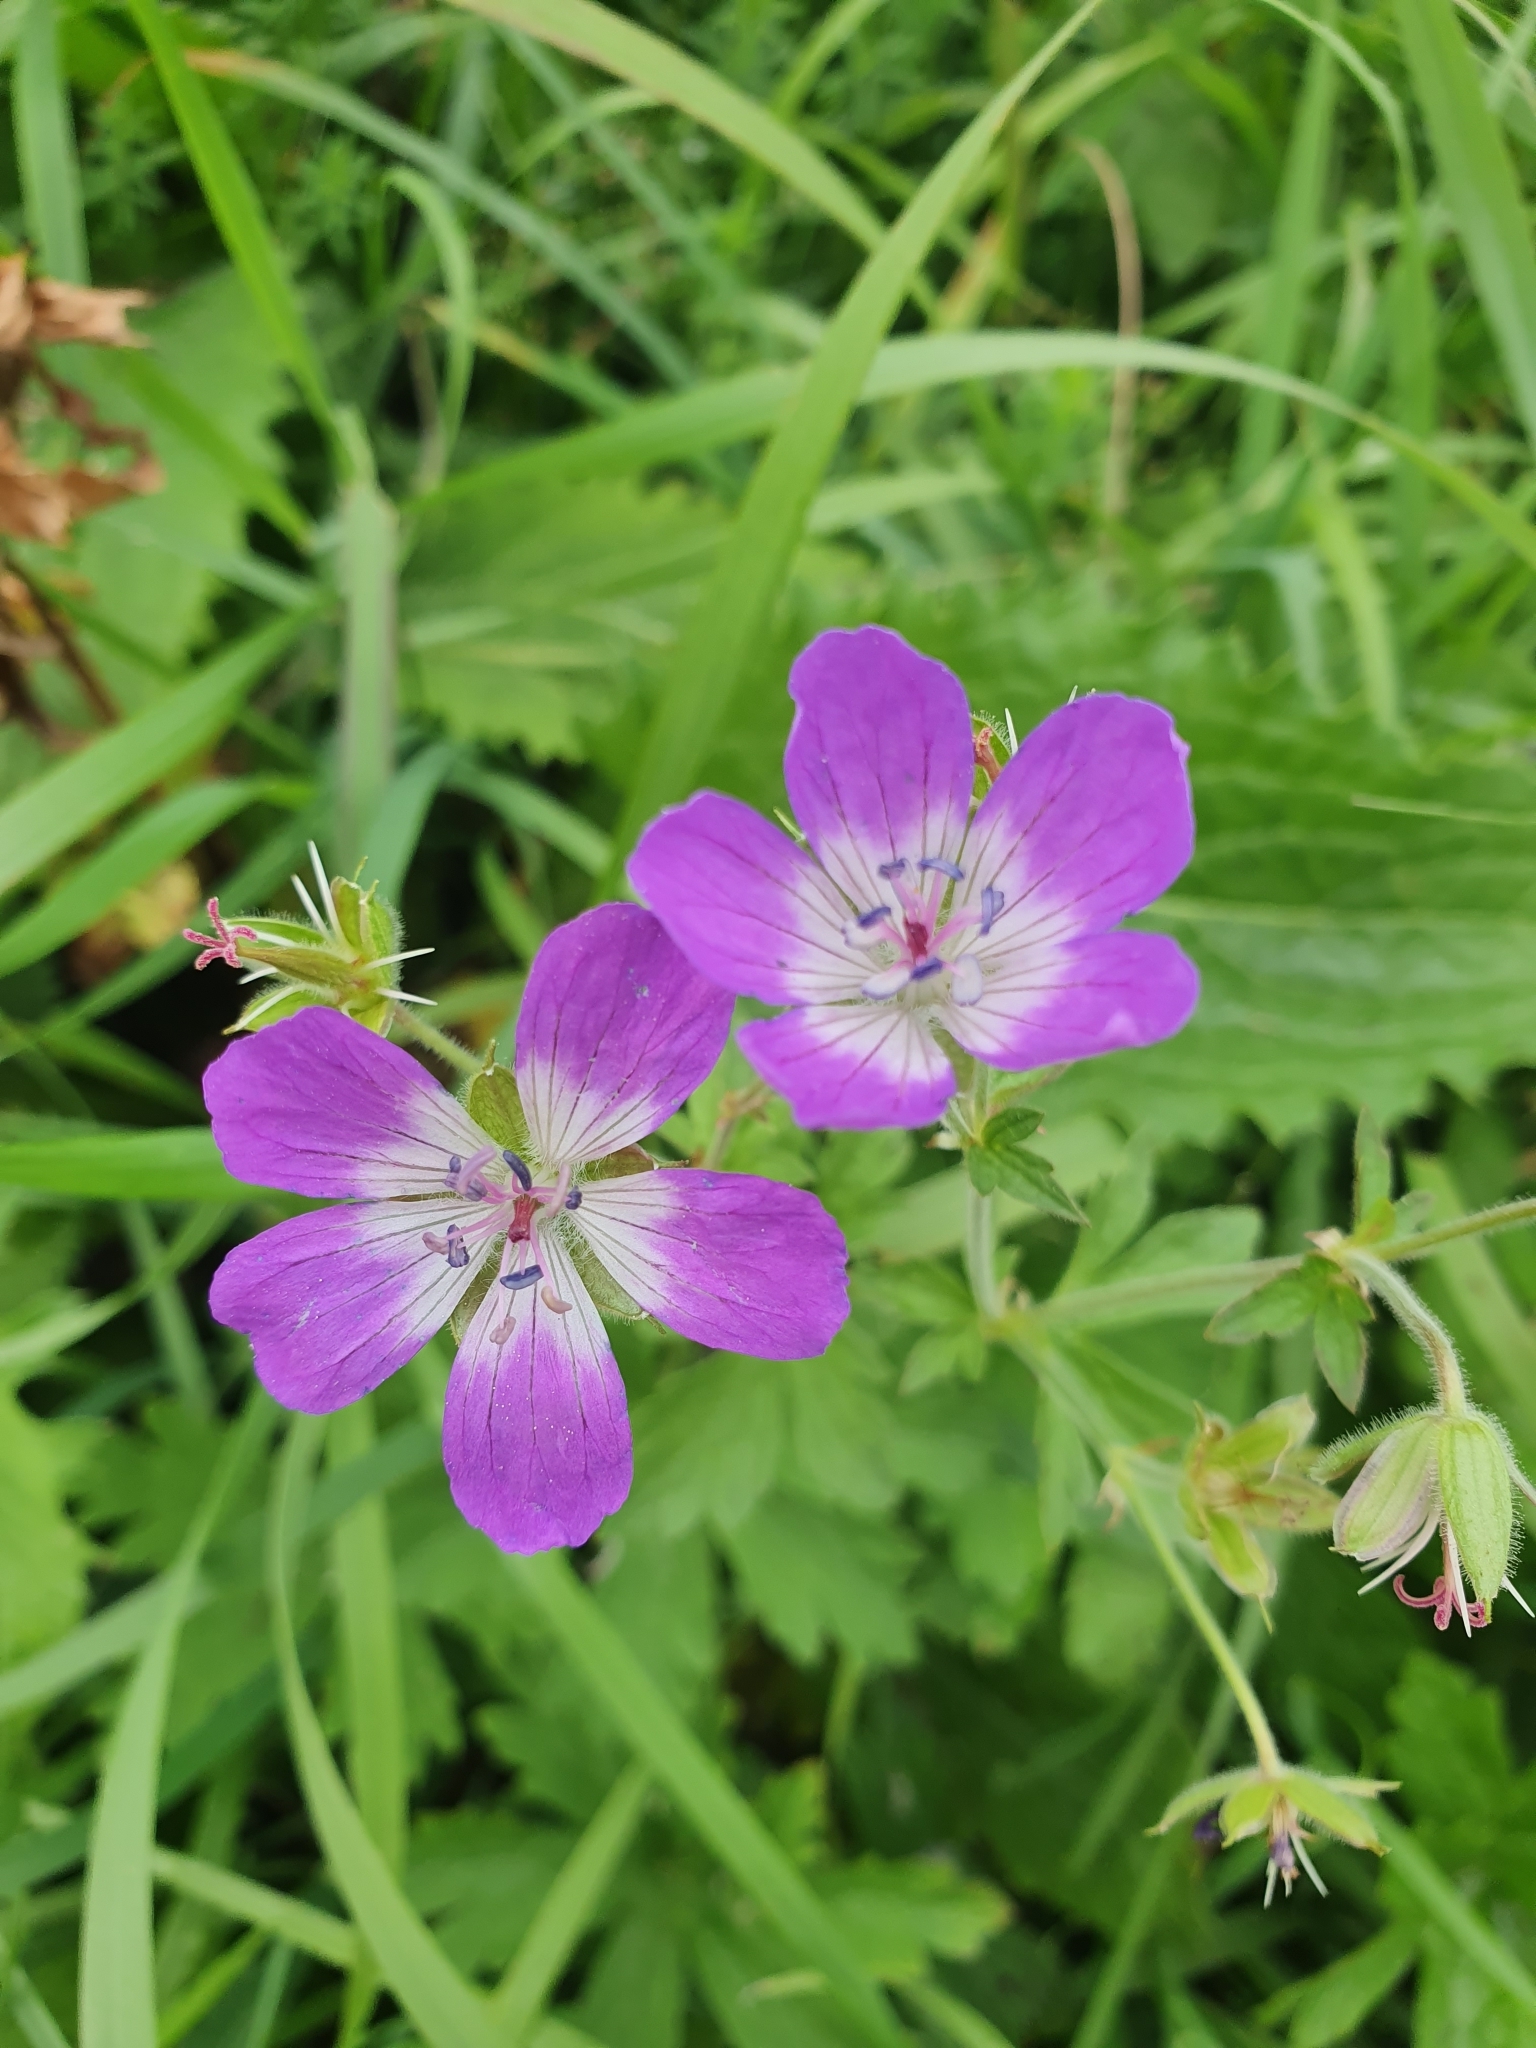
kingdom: Plantae
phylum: Tracheophyta
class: Magnoliopsida
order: Geraniales
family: Geraniaceae
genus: Geranium
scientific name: Geranium sylvaticum
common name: Wood crane's-bill
